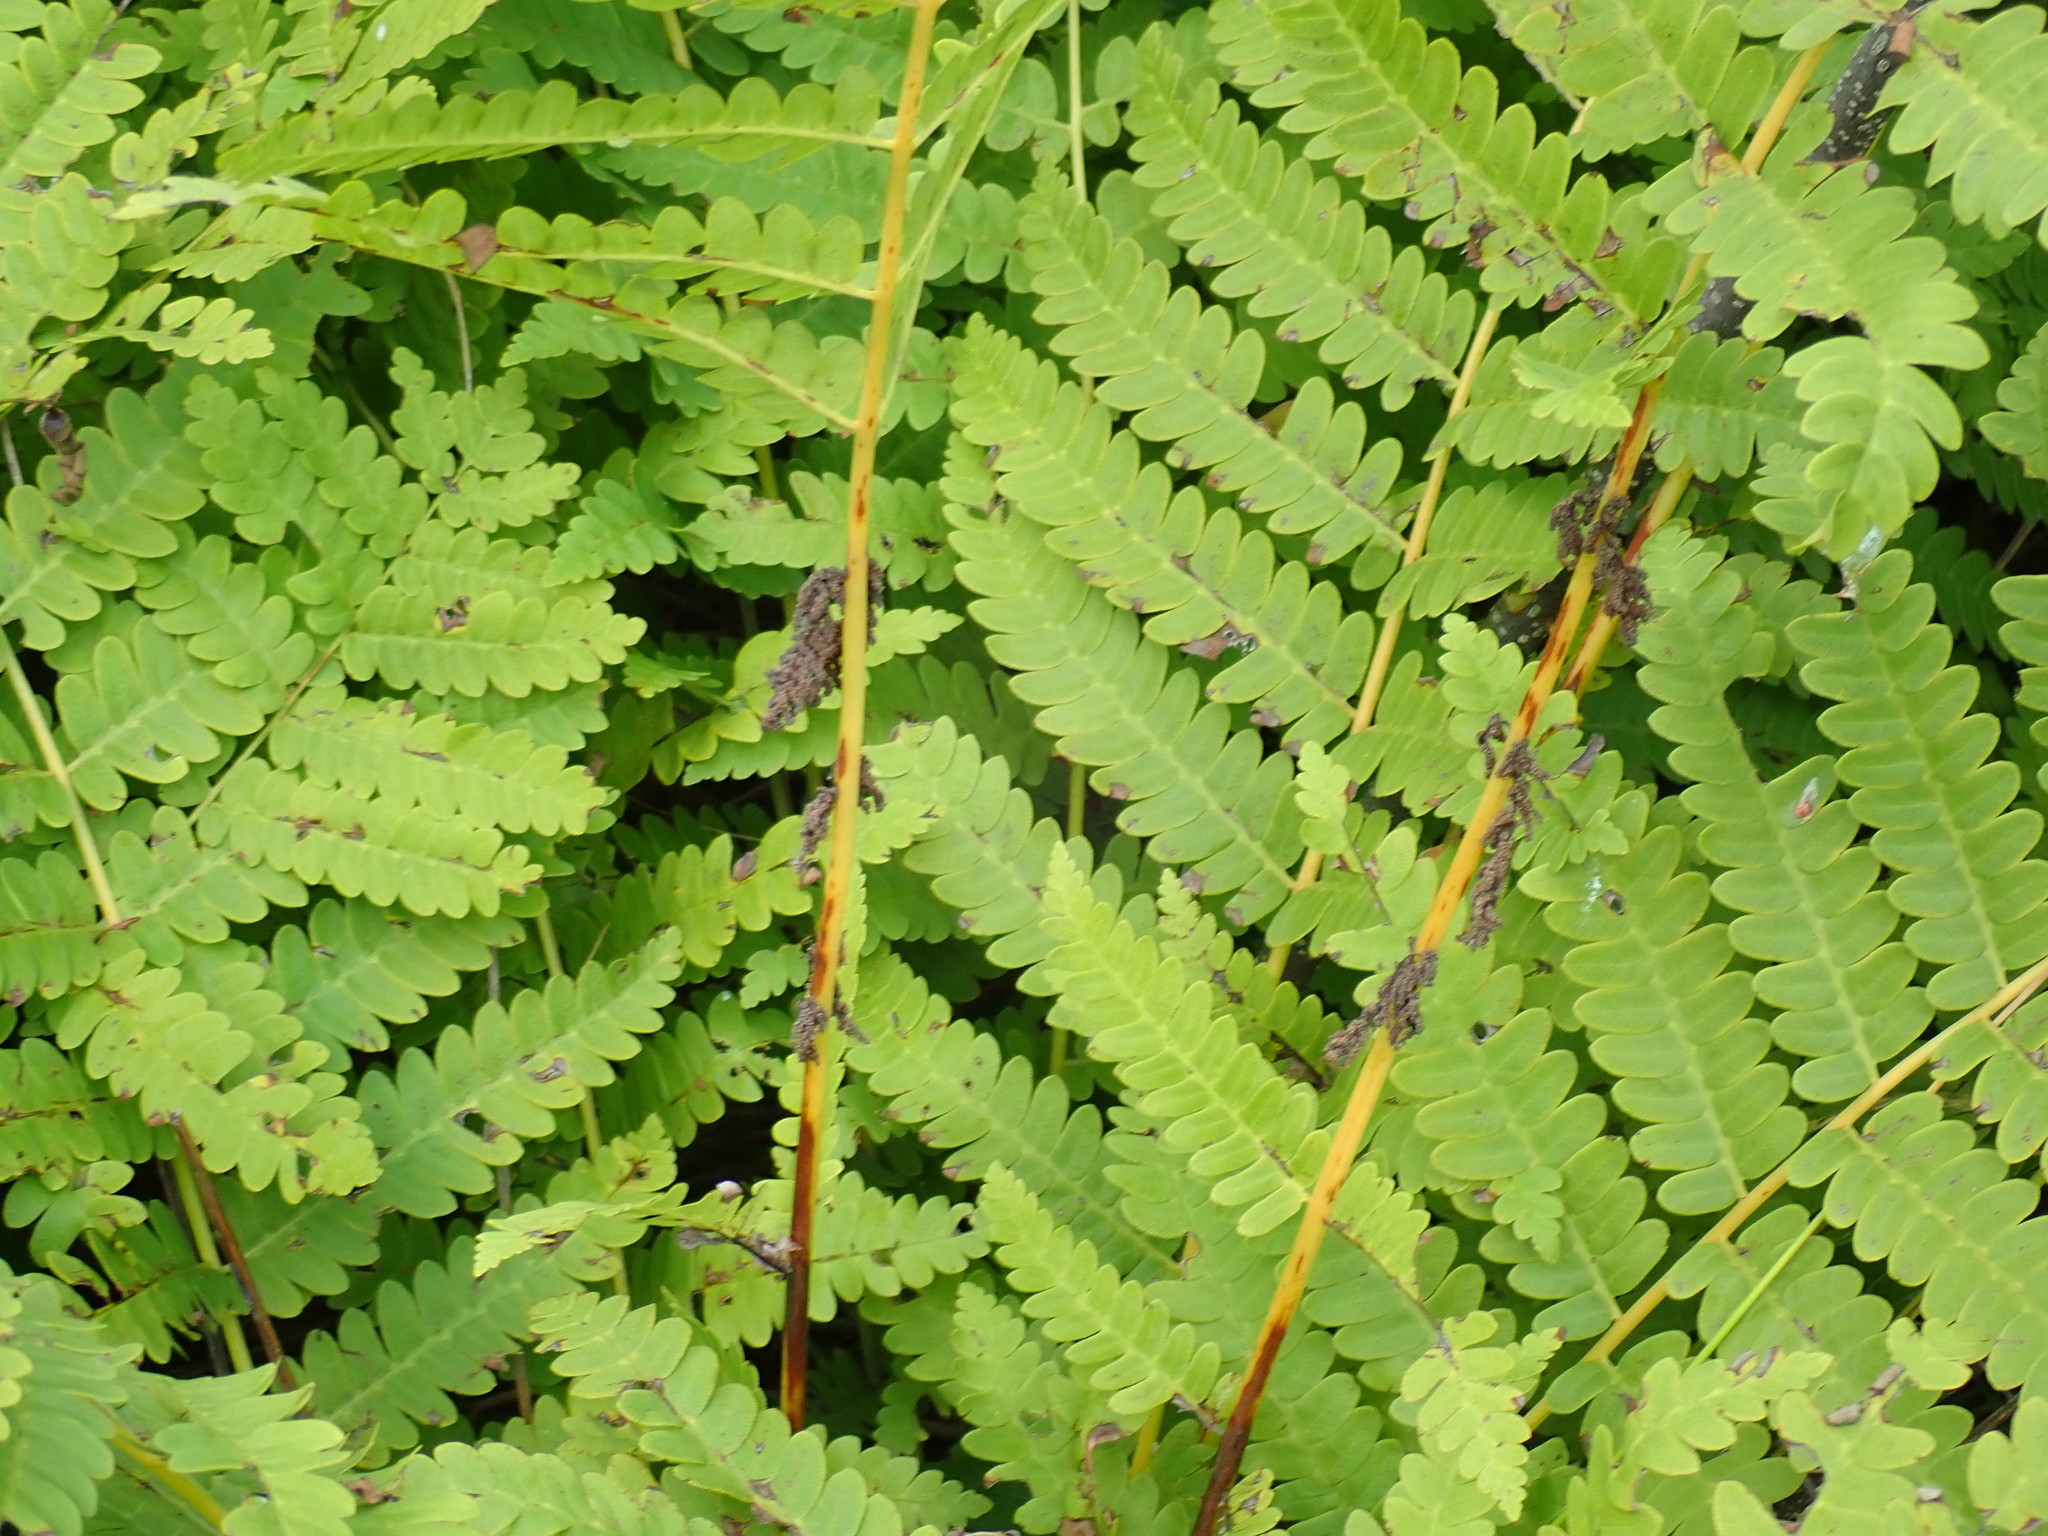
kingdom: Plantae
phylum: Tracheophyta
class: Polypodiopsida
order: Osmundales
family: Osmundaceae
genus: Claytosmunda
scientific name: Claytosmunda claytoniana
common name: Clayton's fern
